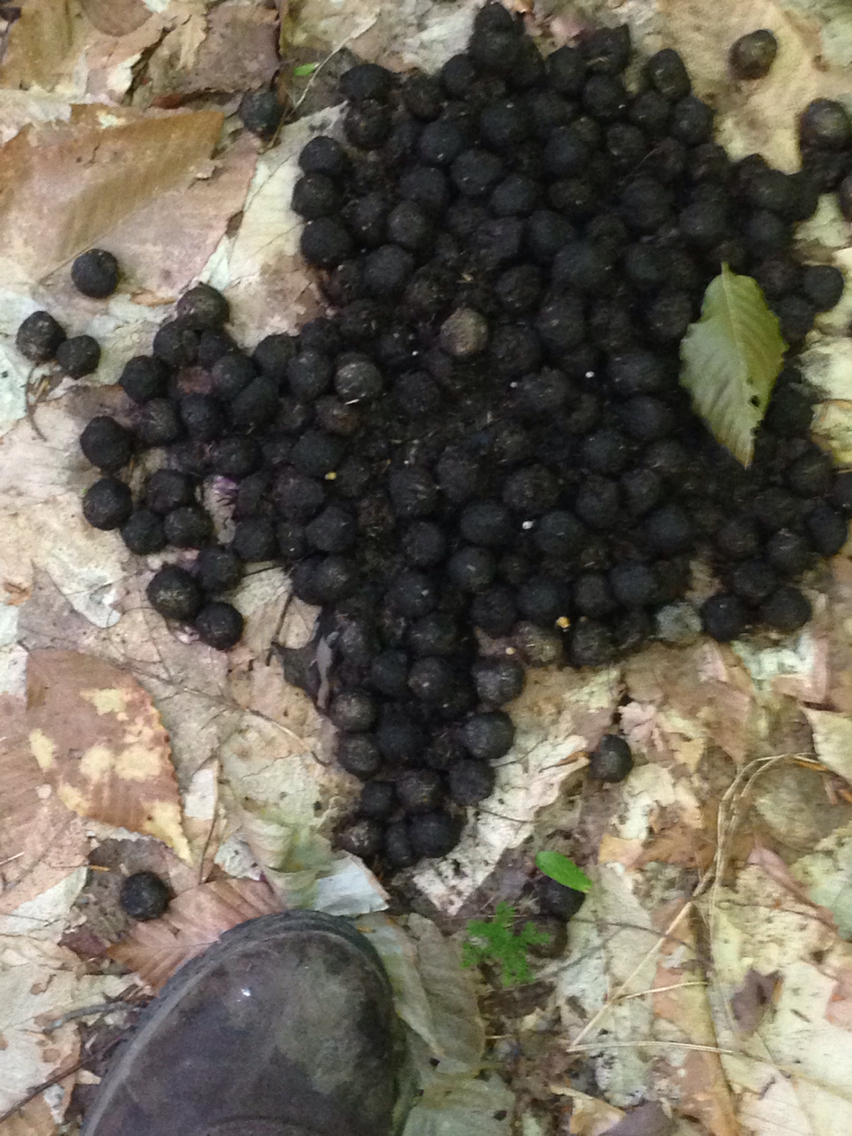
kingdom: Animalia
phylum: Chordata
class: Mammalia
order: Artiodactyla
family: Cervidae
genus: Alces
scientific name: Alces alces
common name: Moose
